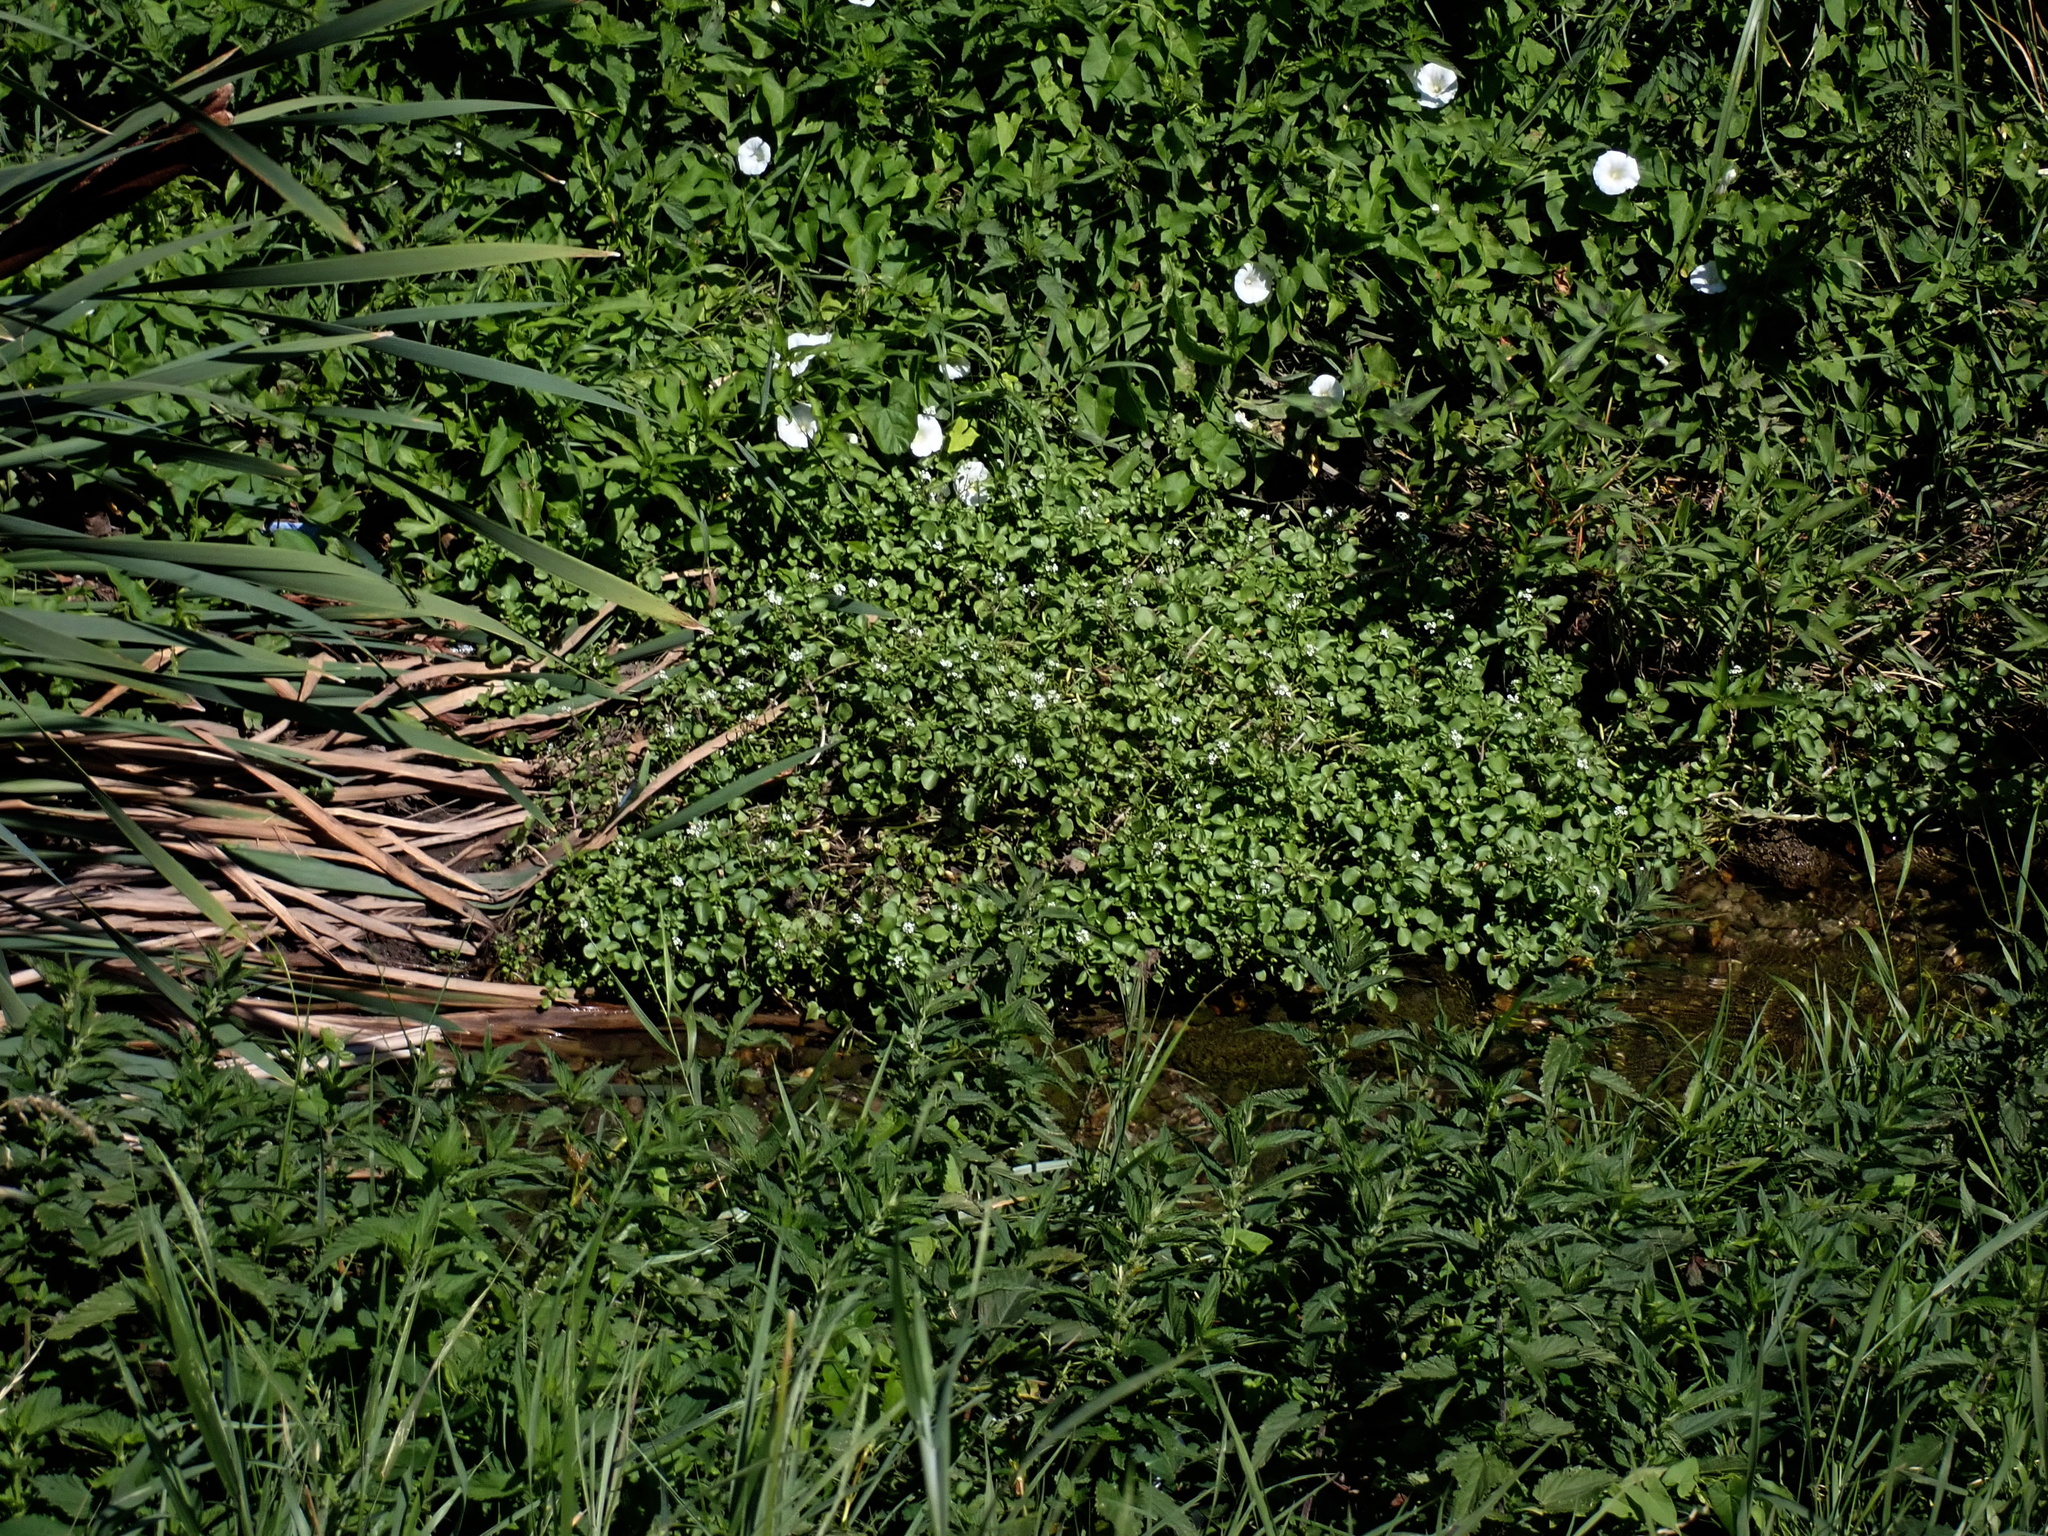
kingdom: Plantae
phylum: Tracheophyta
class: Magnoliopsida
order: Brassicales
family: Brassicaceae
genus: Nasturtium
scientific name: Nasturtium officinale
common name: Watercress
